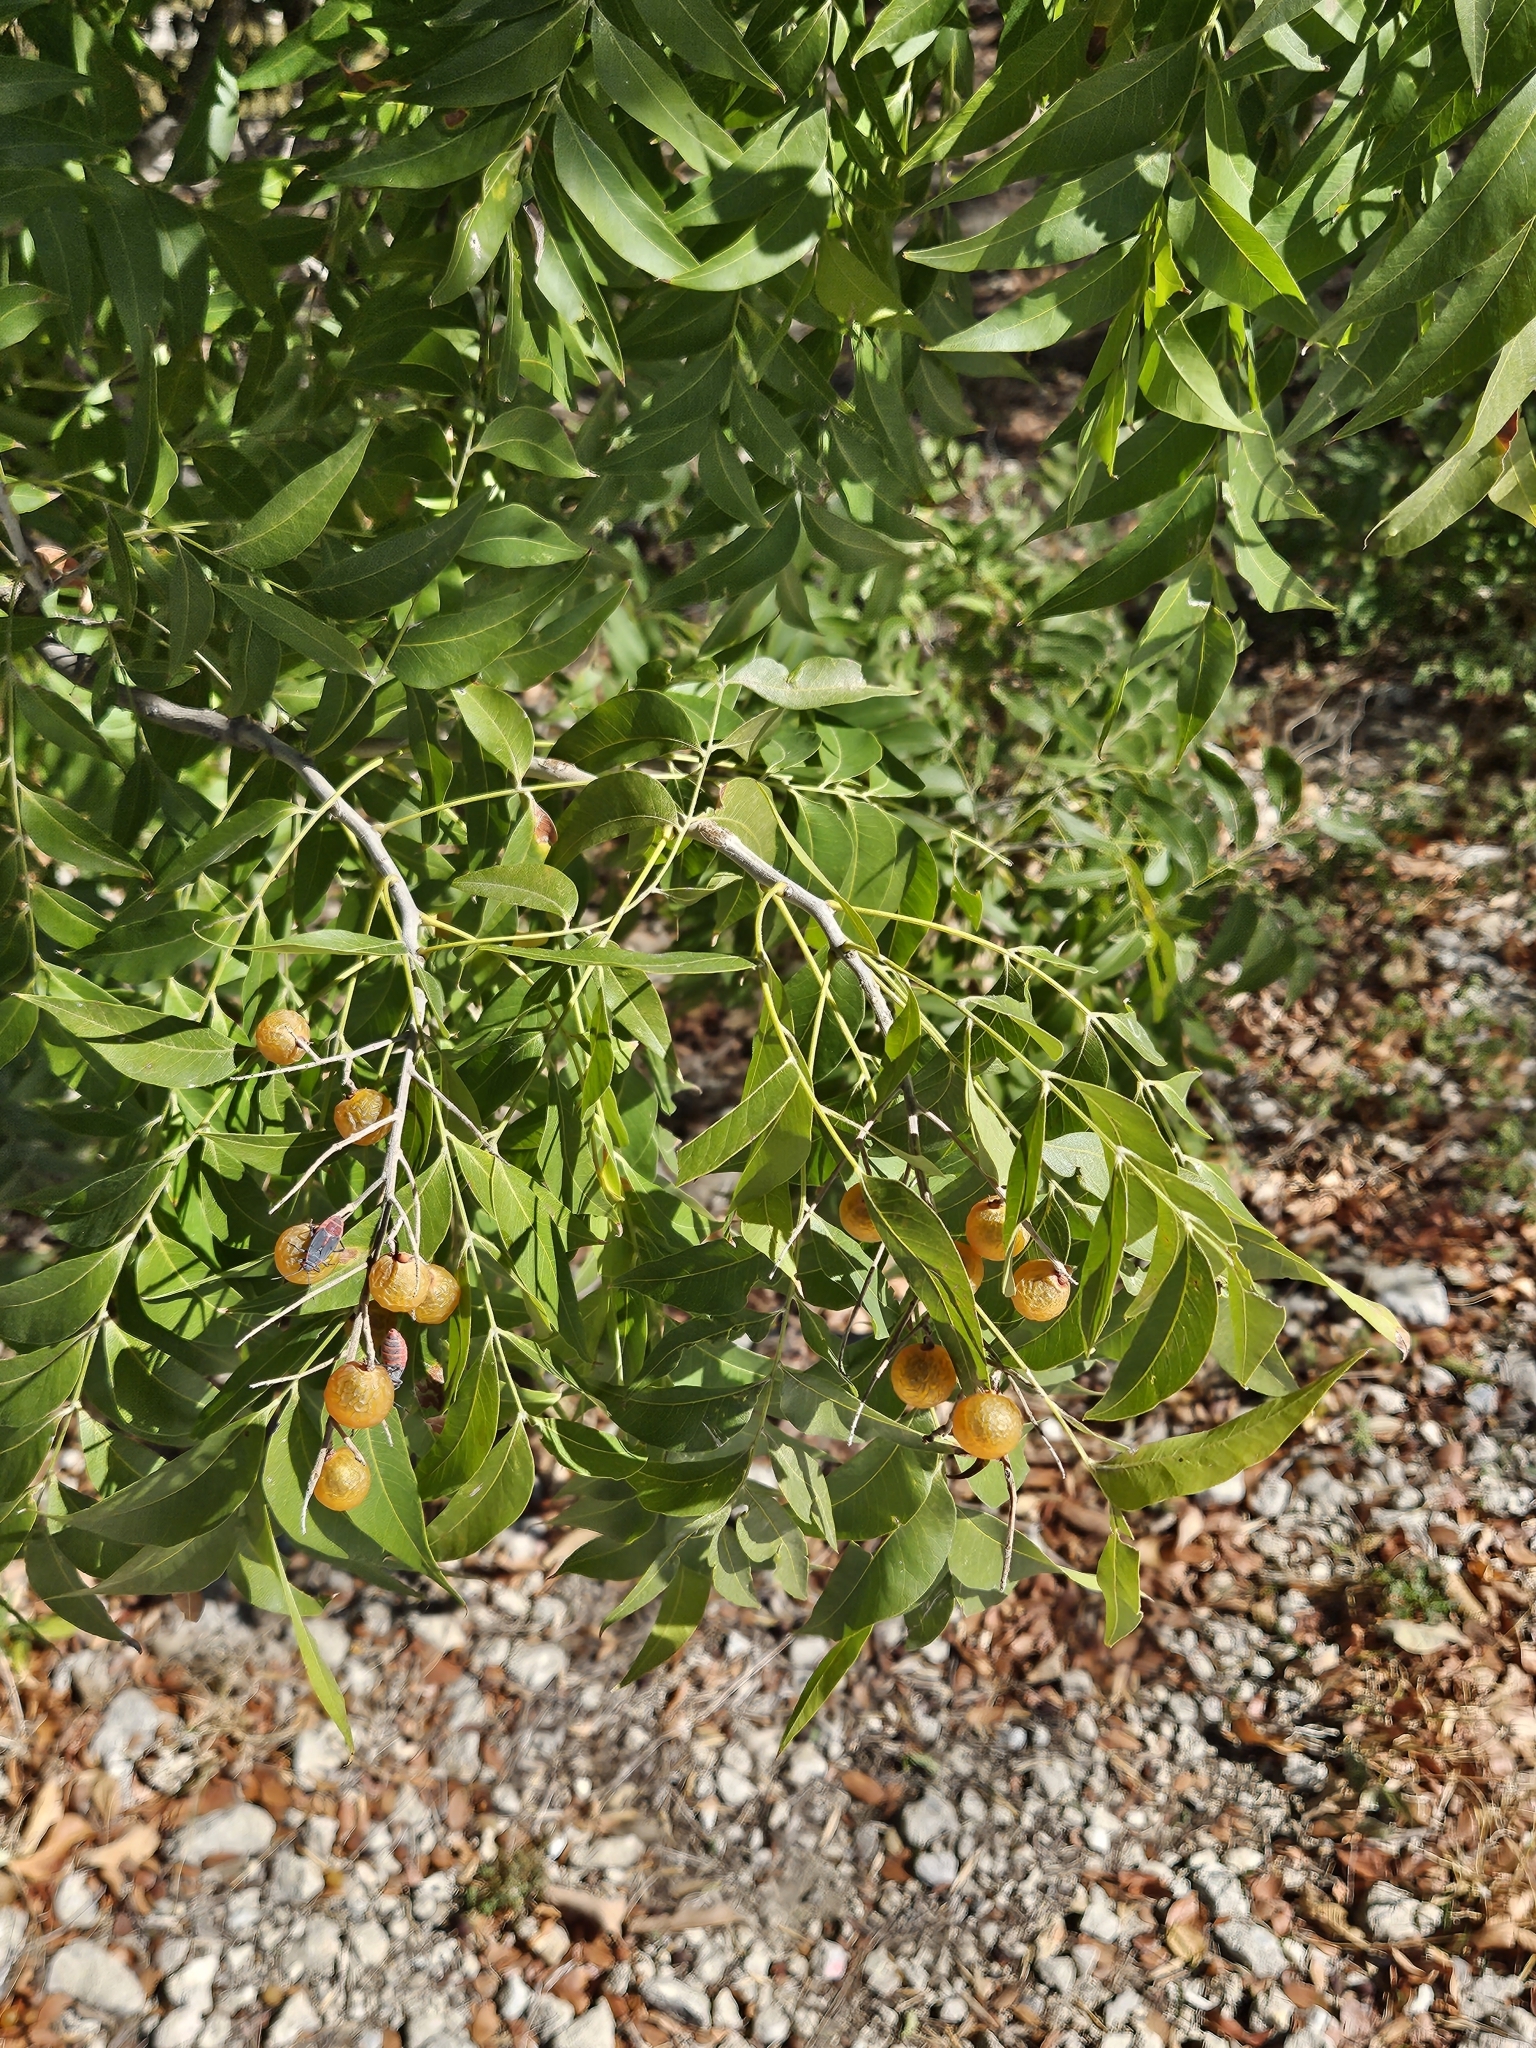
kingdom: Plantae
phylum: Tracheophyta
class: Magnoliopsida
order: Sapindales
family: Sapindaceae
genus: Sapindus
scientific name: Sapindus drummondii
